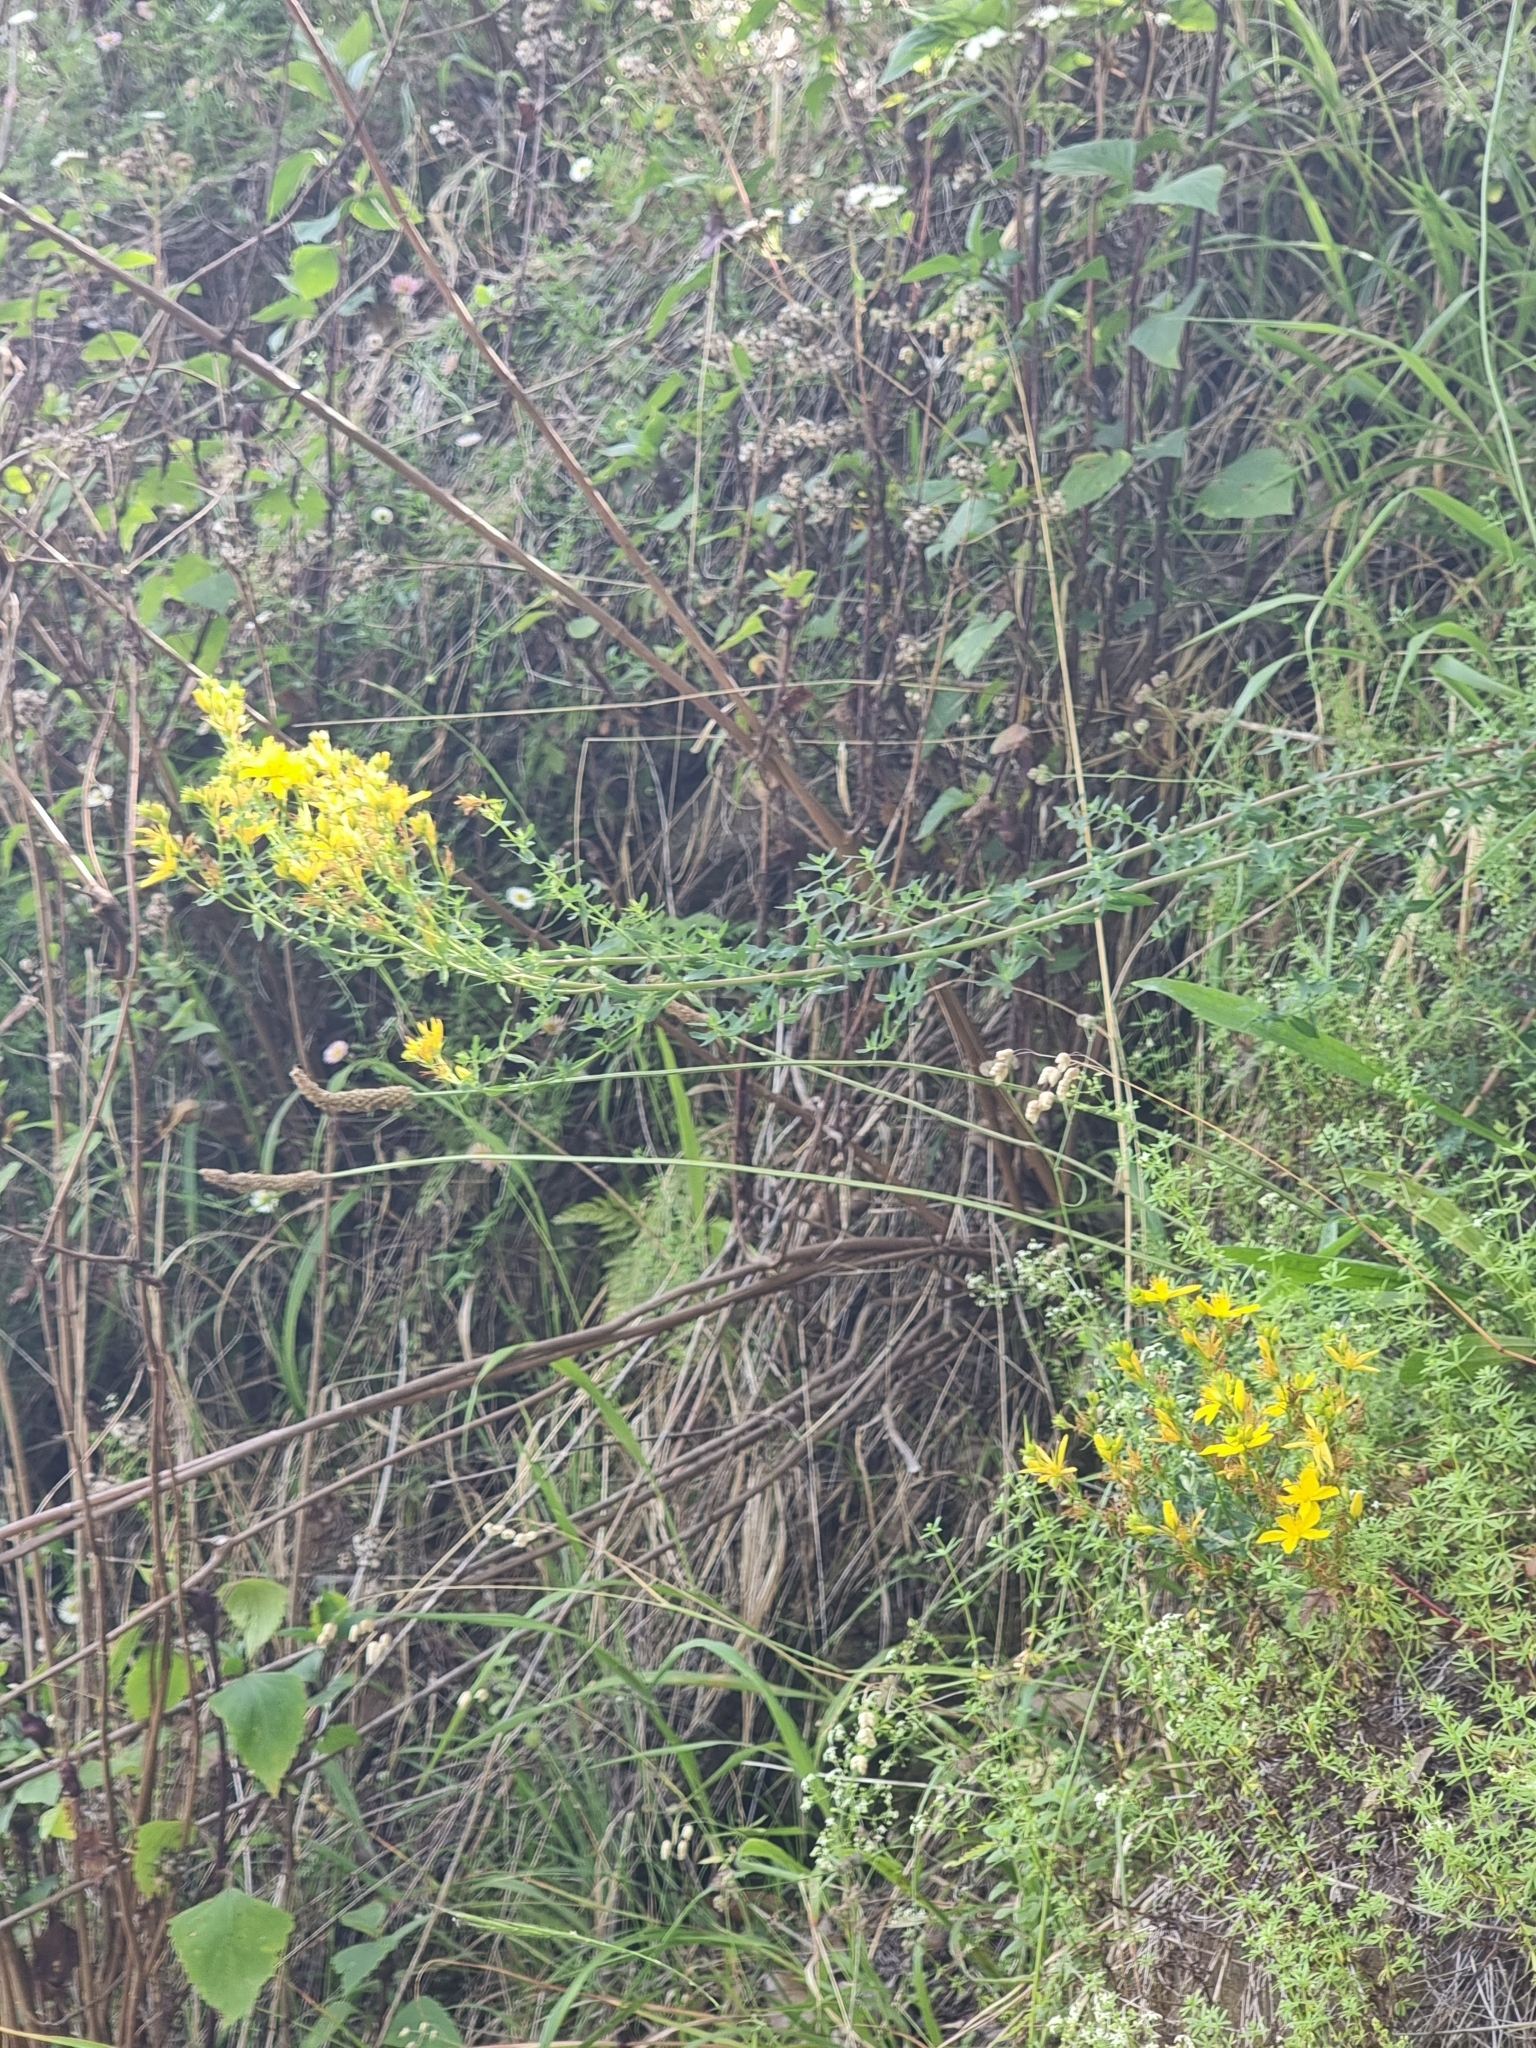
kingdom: Plantae
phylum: Tracheophyta
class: Magnoliopsida
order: Malpighiales
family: Hypericaceae
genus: Hypericum
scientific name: Hypericum perforatum
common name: Common st. johnswort
